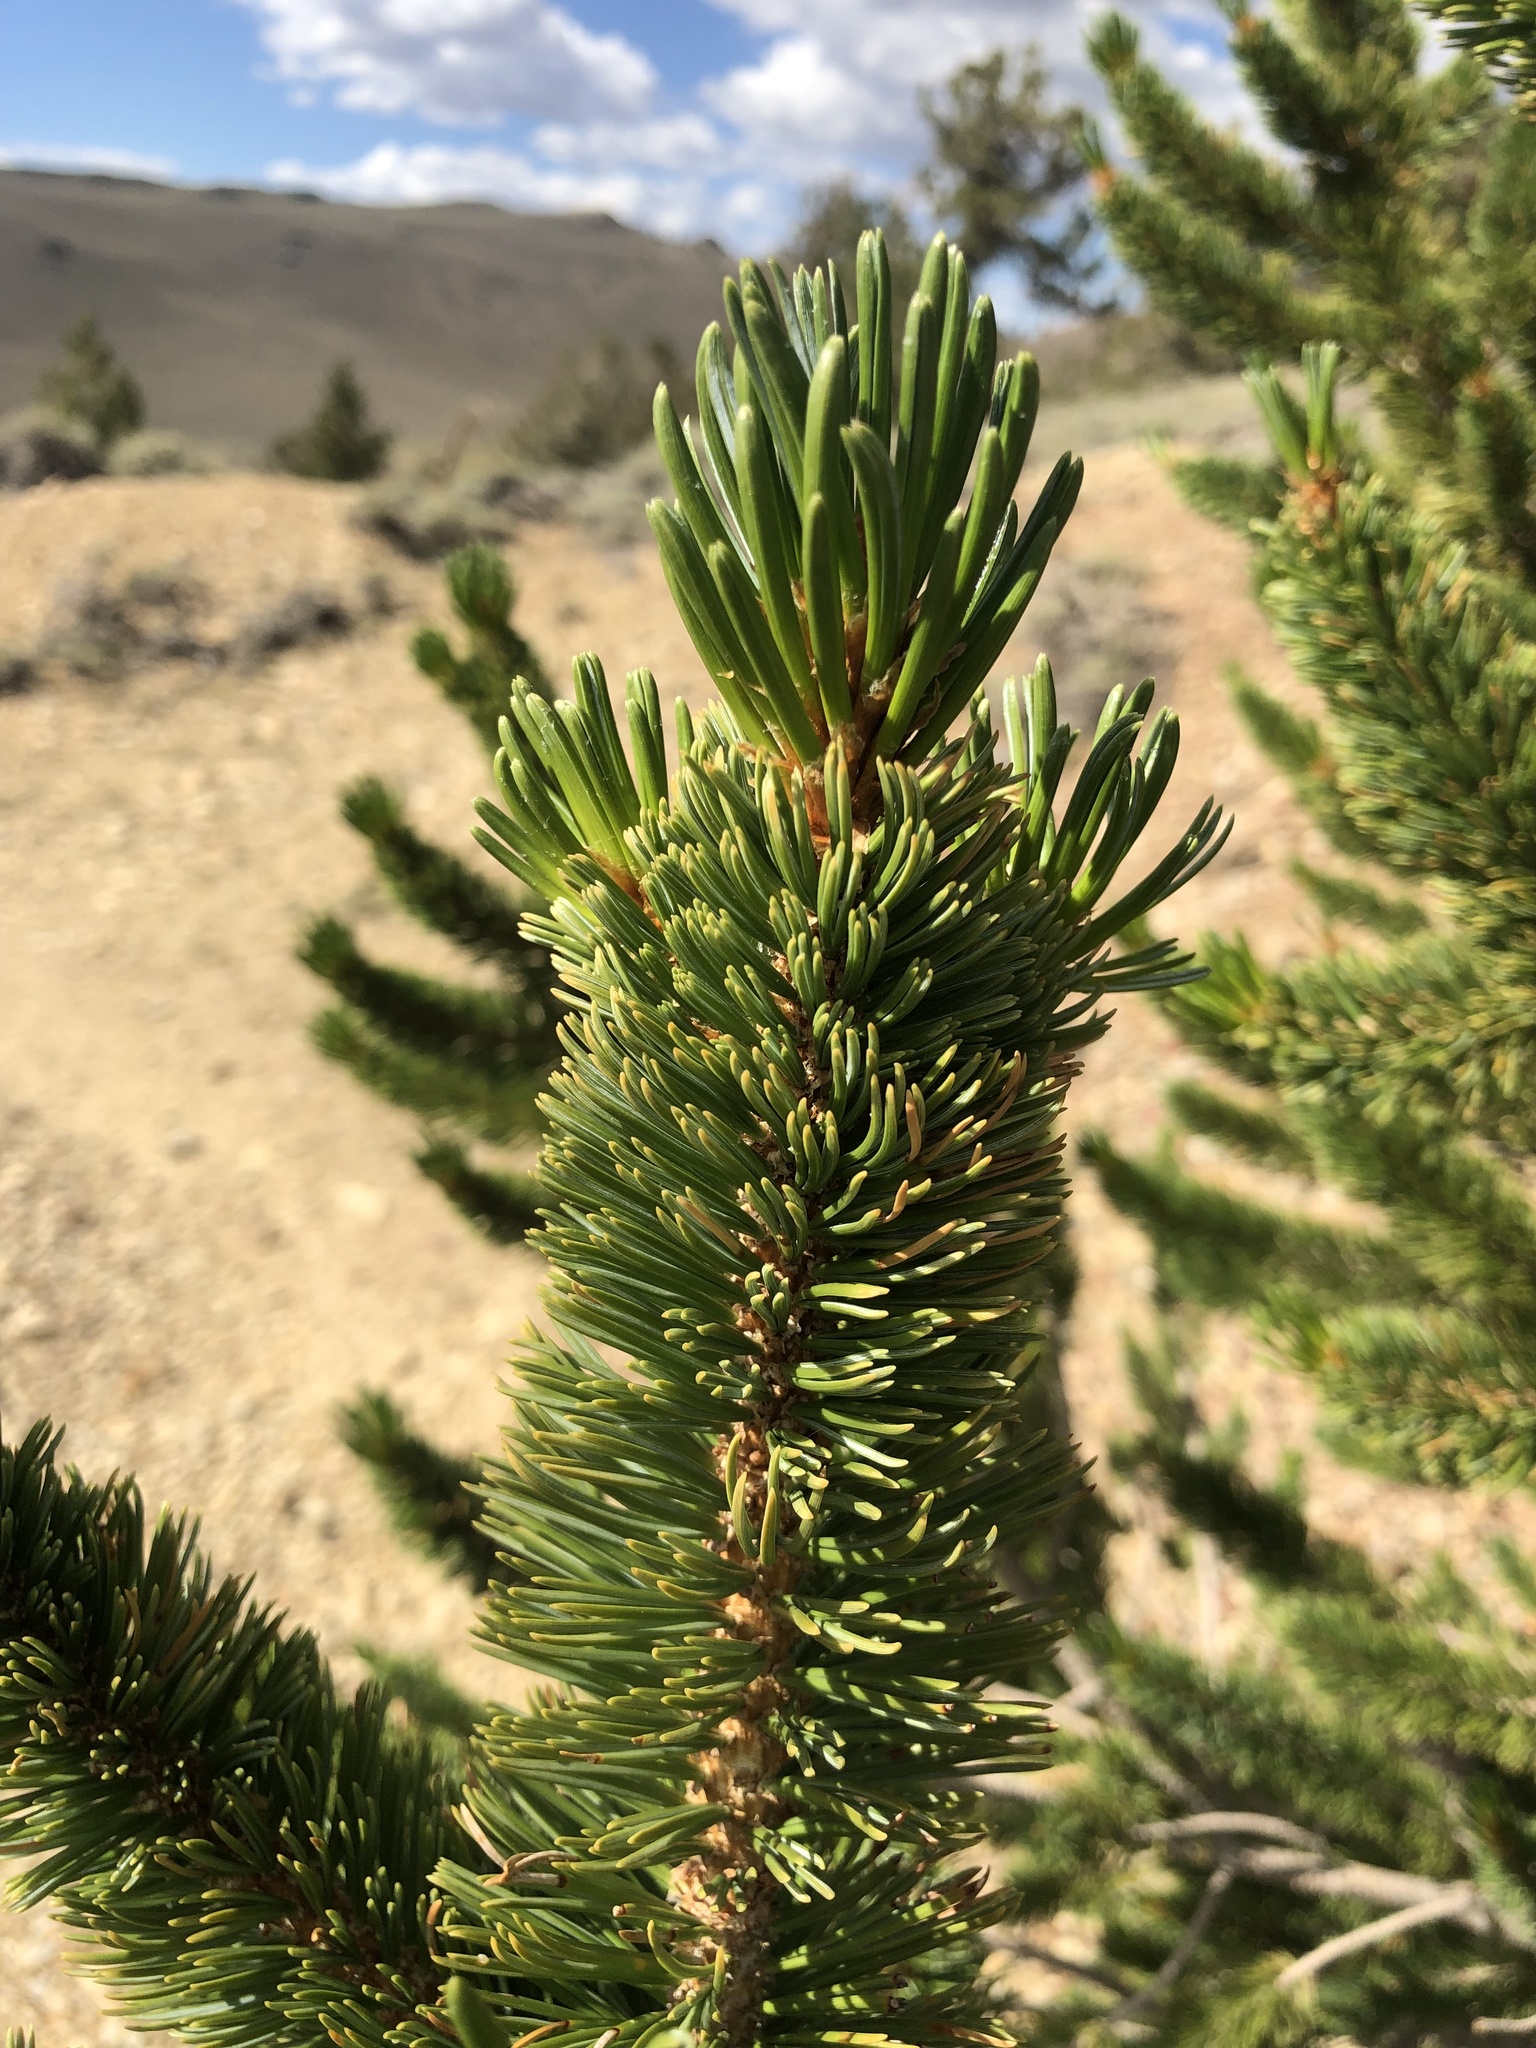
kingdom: Plantae
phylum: Tracheophyta
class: Pinopsida
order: Pinales
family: Pinaceae
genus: Pinus
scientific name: Pinus longaeva
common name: Intermountain bristlecone pine
